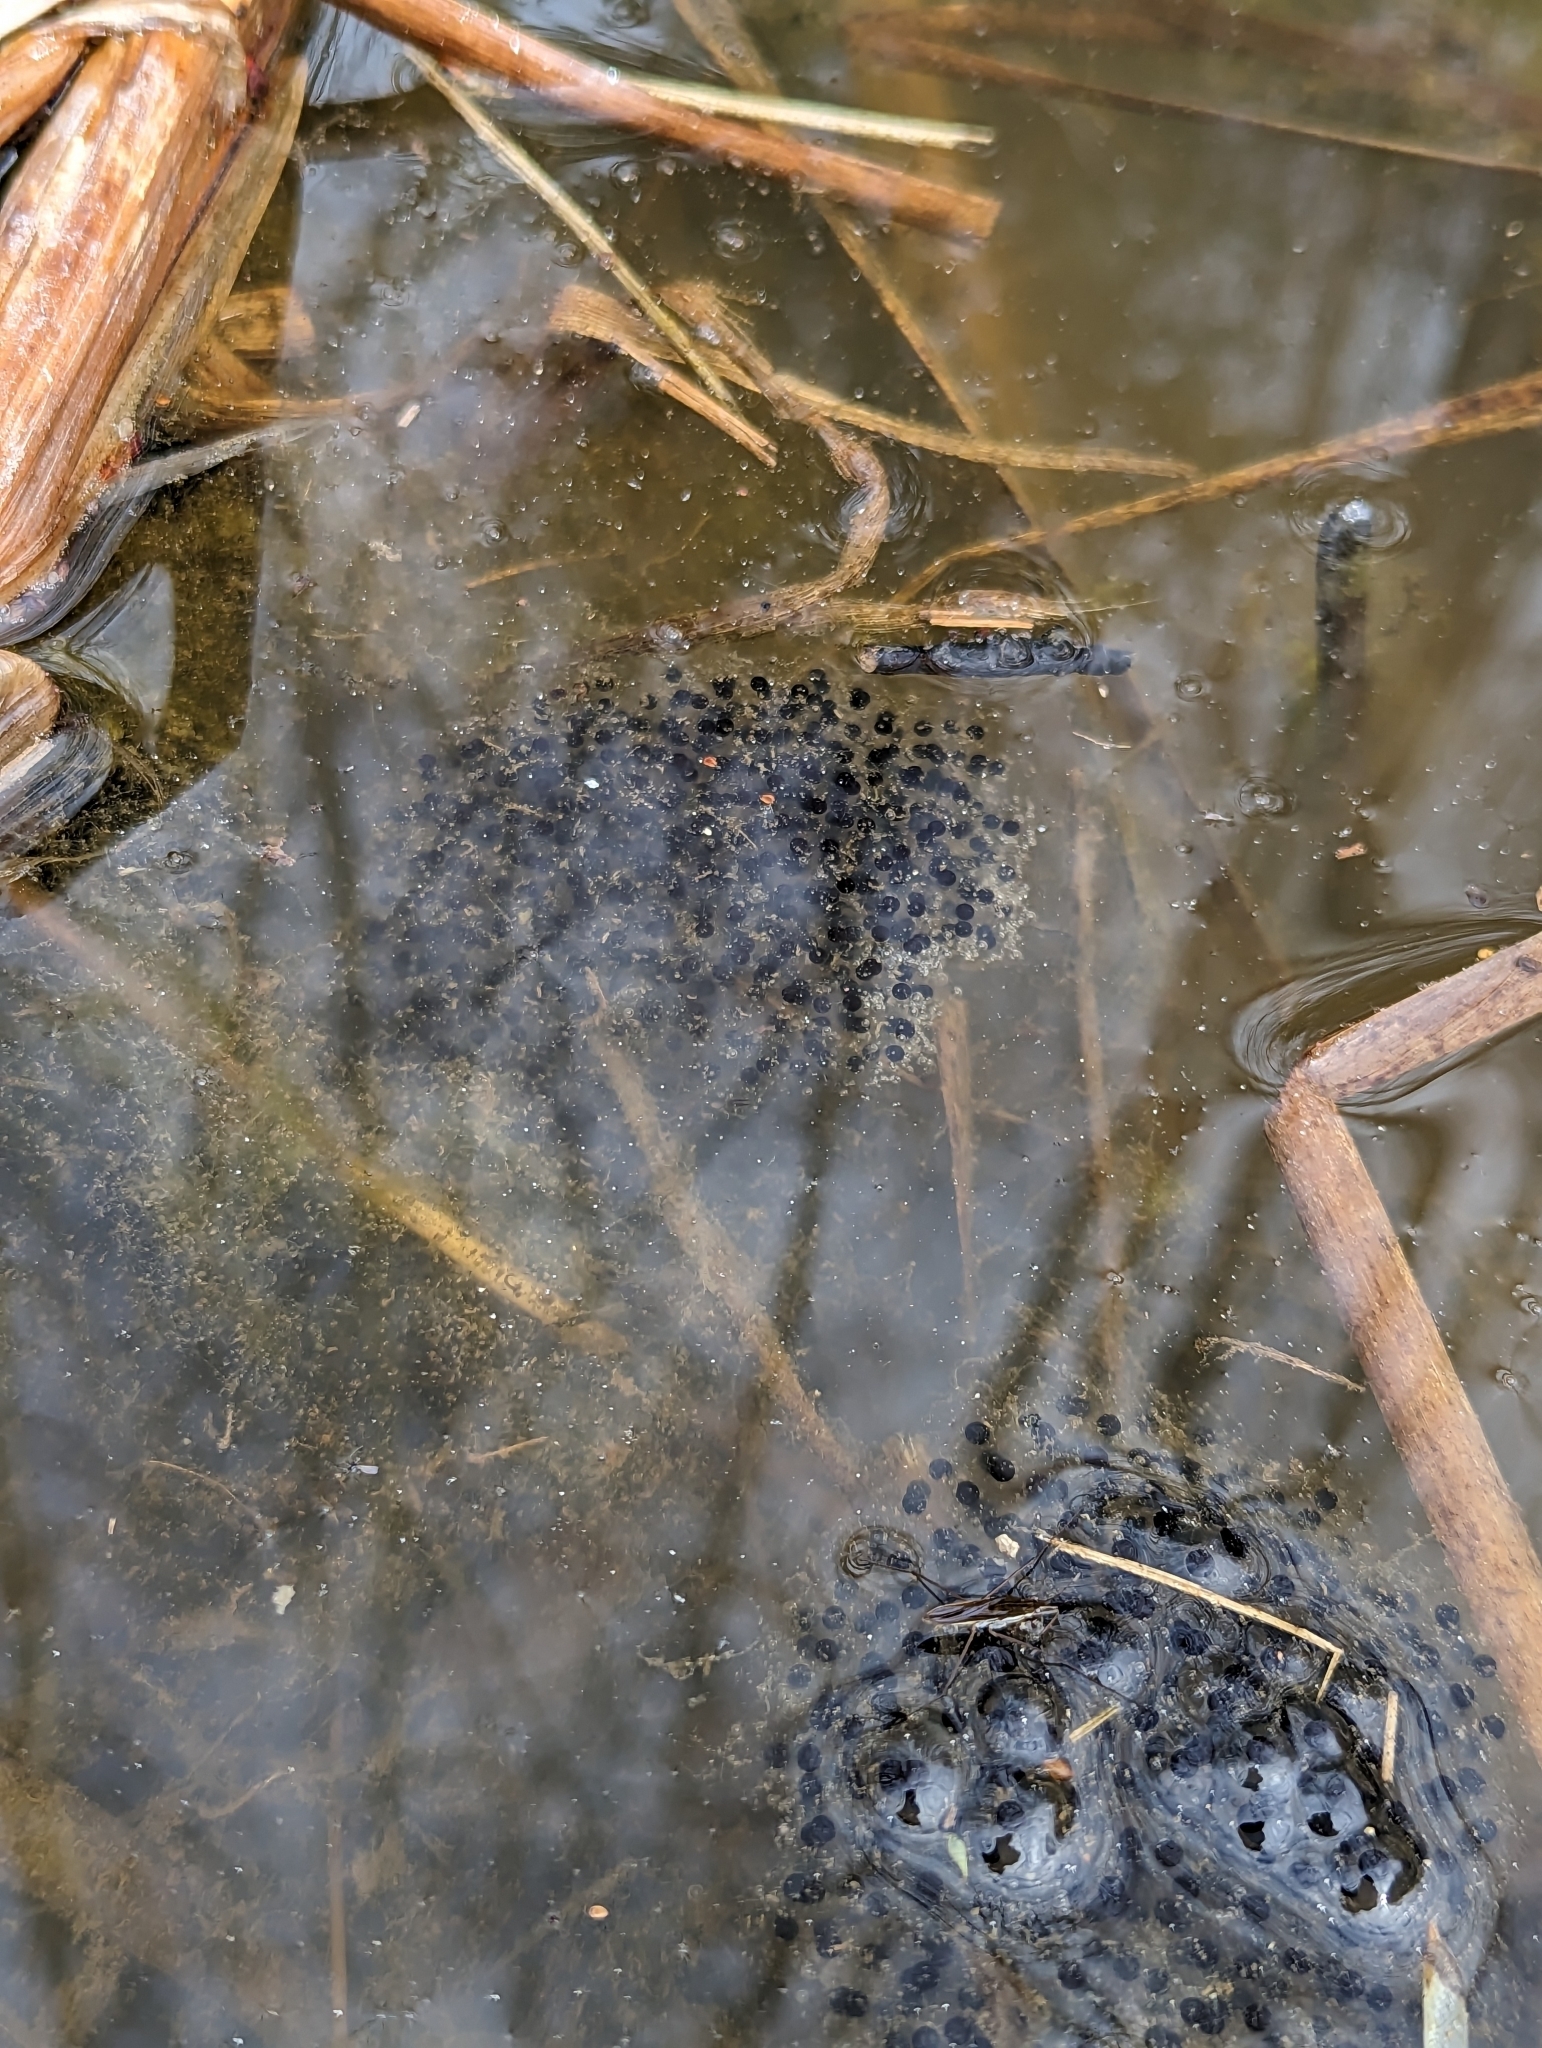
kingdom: Animalia
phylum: Chordata
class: Amphibia
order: Anura
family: Ranidae
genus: Lithobates
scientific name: Lithobates sylvaticus
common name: Wood frog
